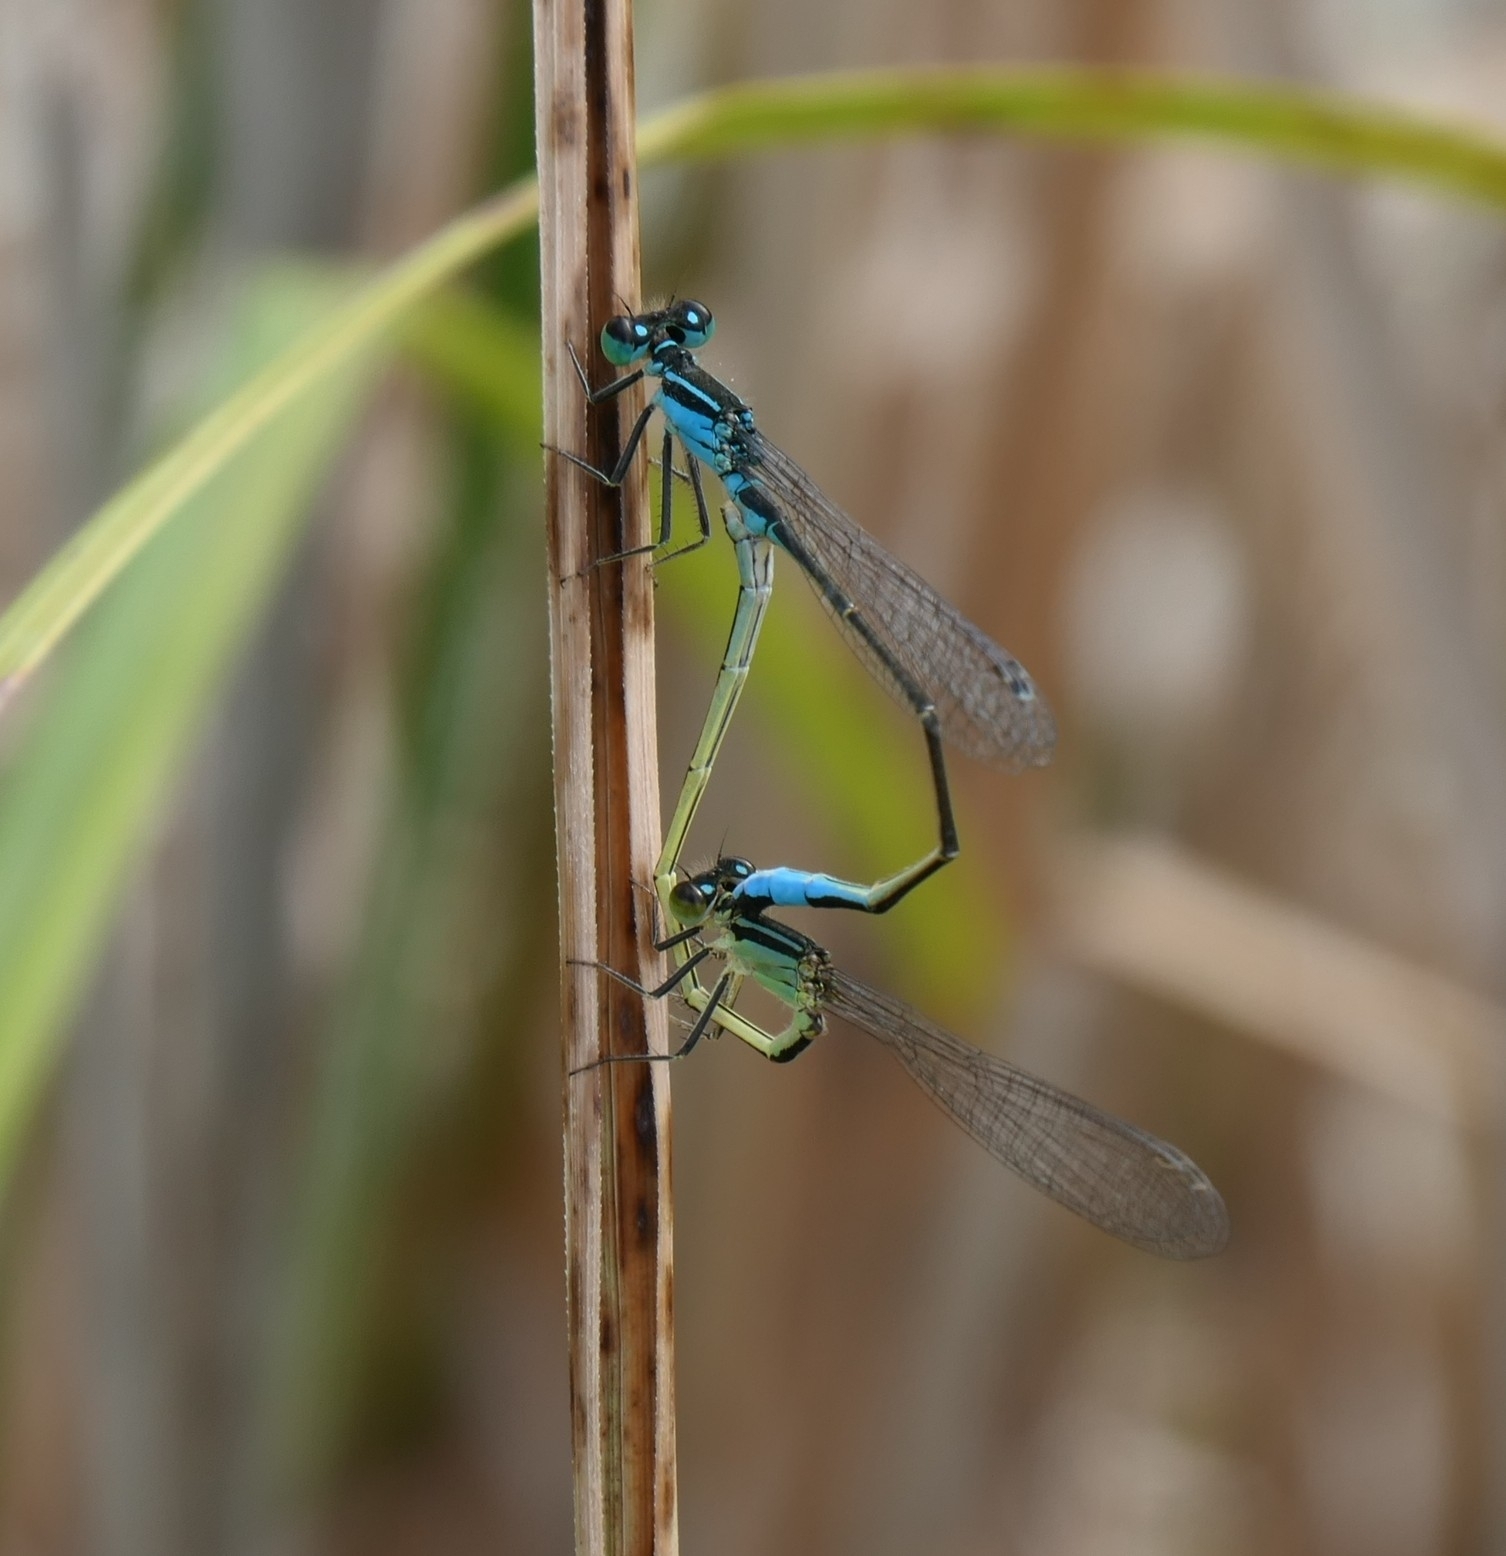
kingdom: Animalia
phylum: Arthropoda
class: Insecta
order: Odonata
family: Coenagrionidae
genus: Ischnura
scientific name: Ischnura elegans
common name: Blue-tailed damselfly
